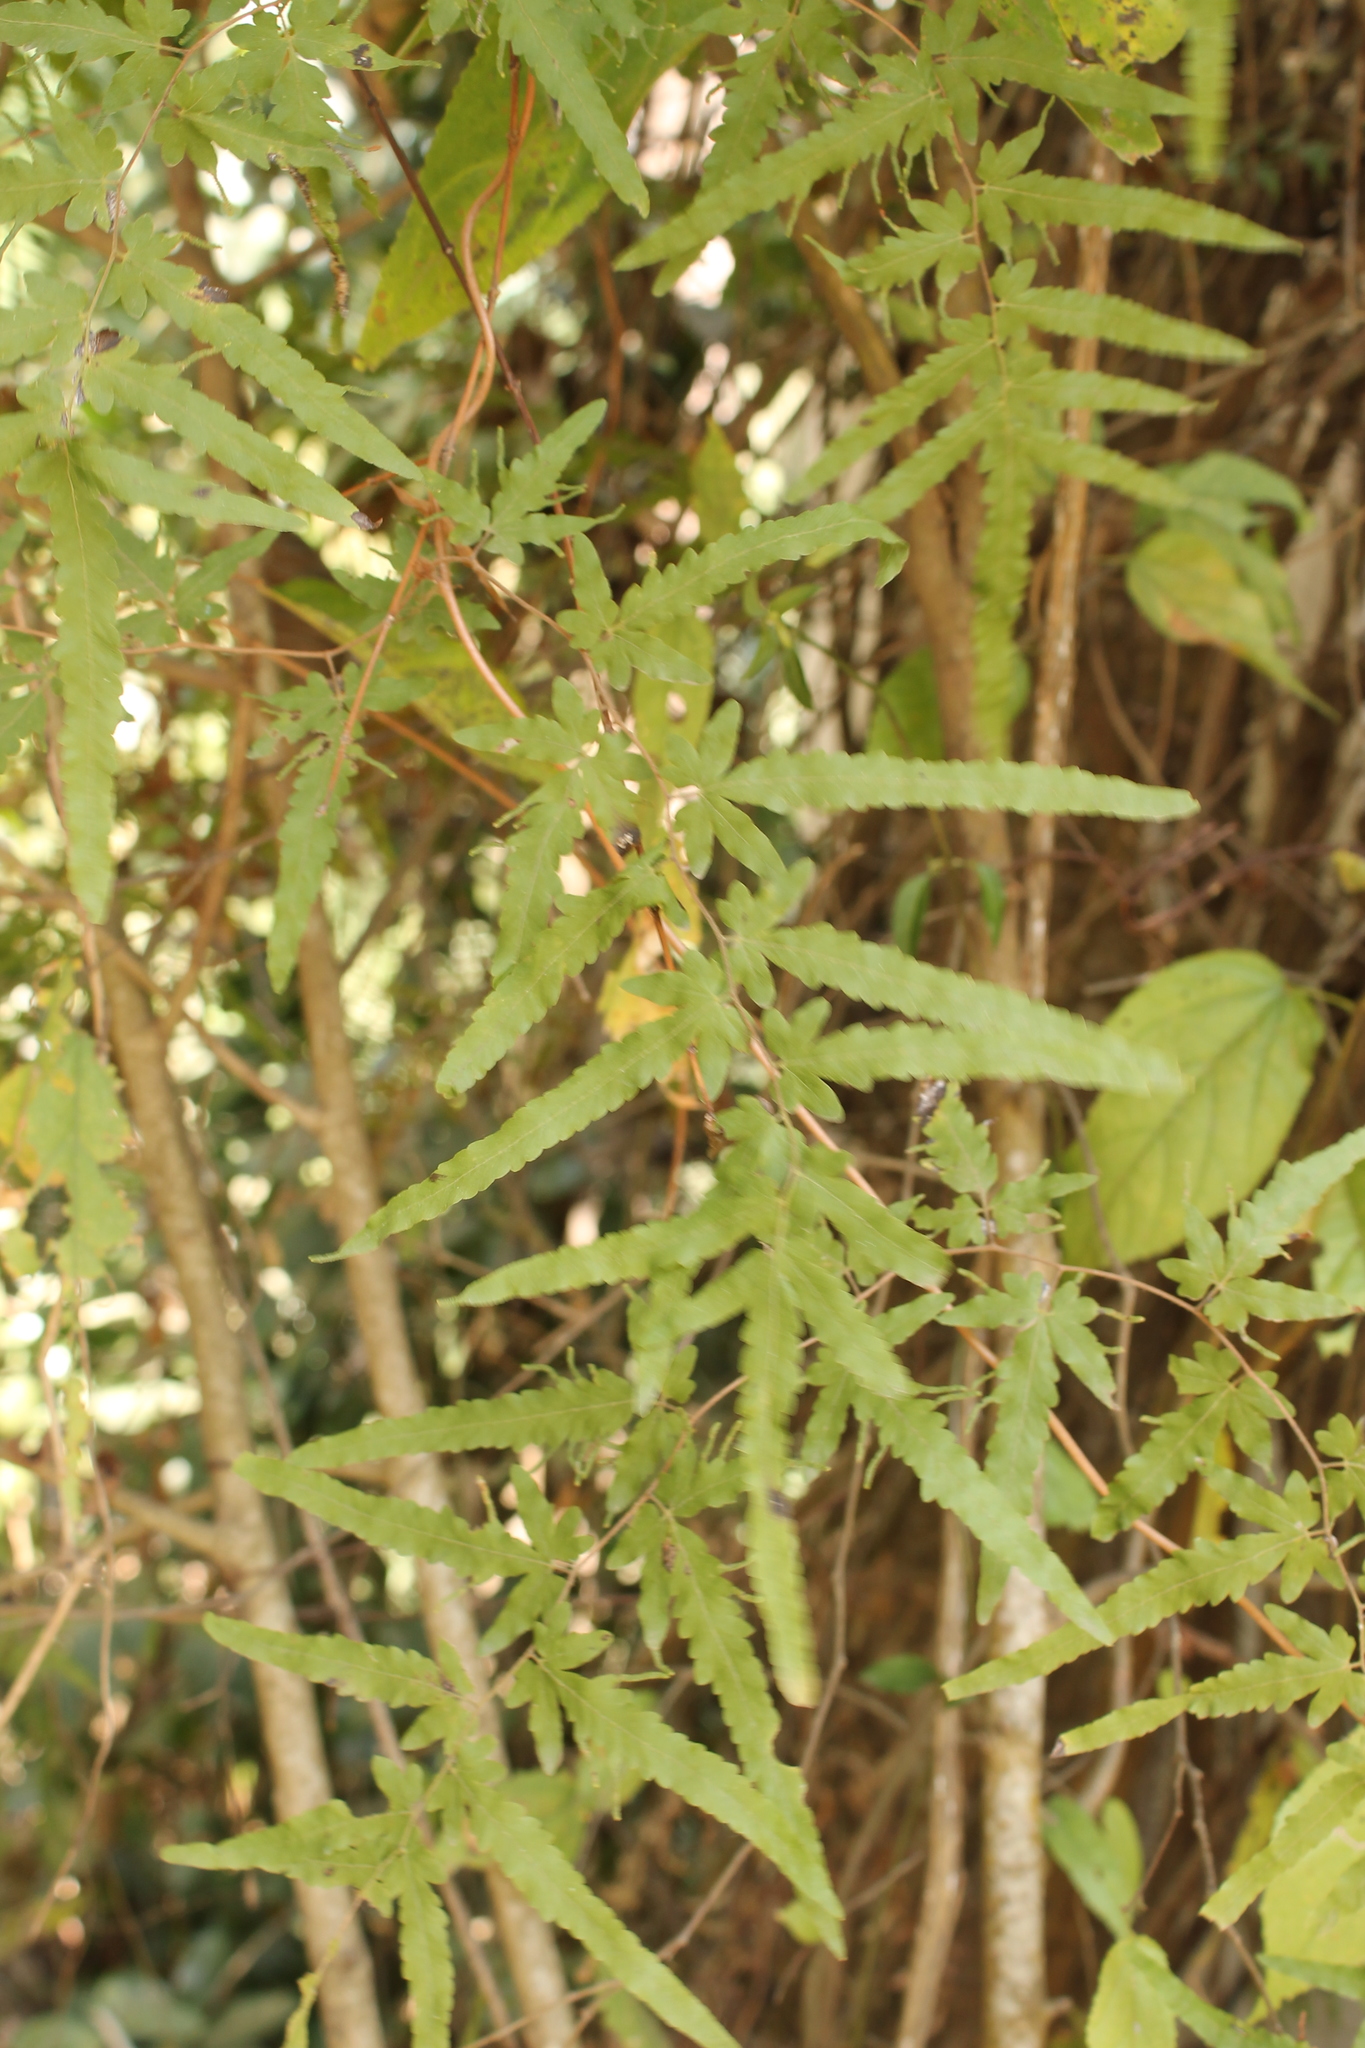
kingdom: Plantae
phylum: Tracheophyta
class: Polypodiopsida
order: Schizaeales
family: Lygodiaceae
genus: Lygodium
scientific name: Lygodium venustum
